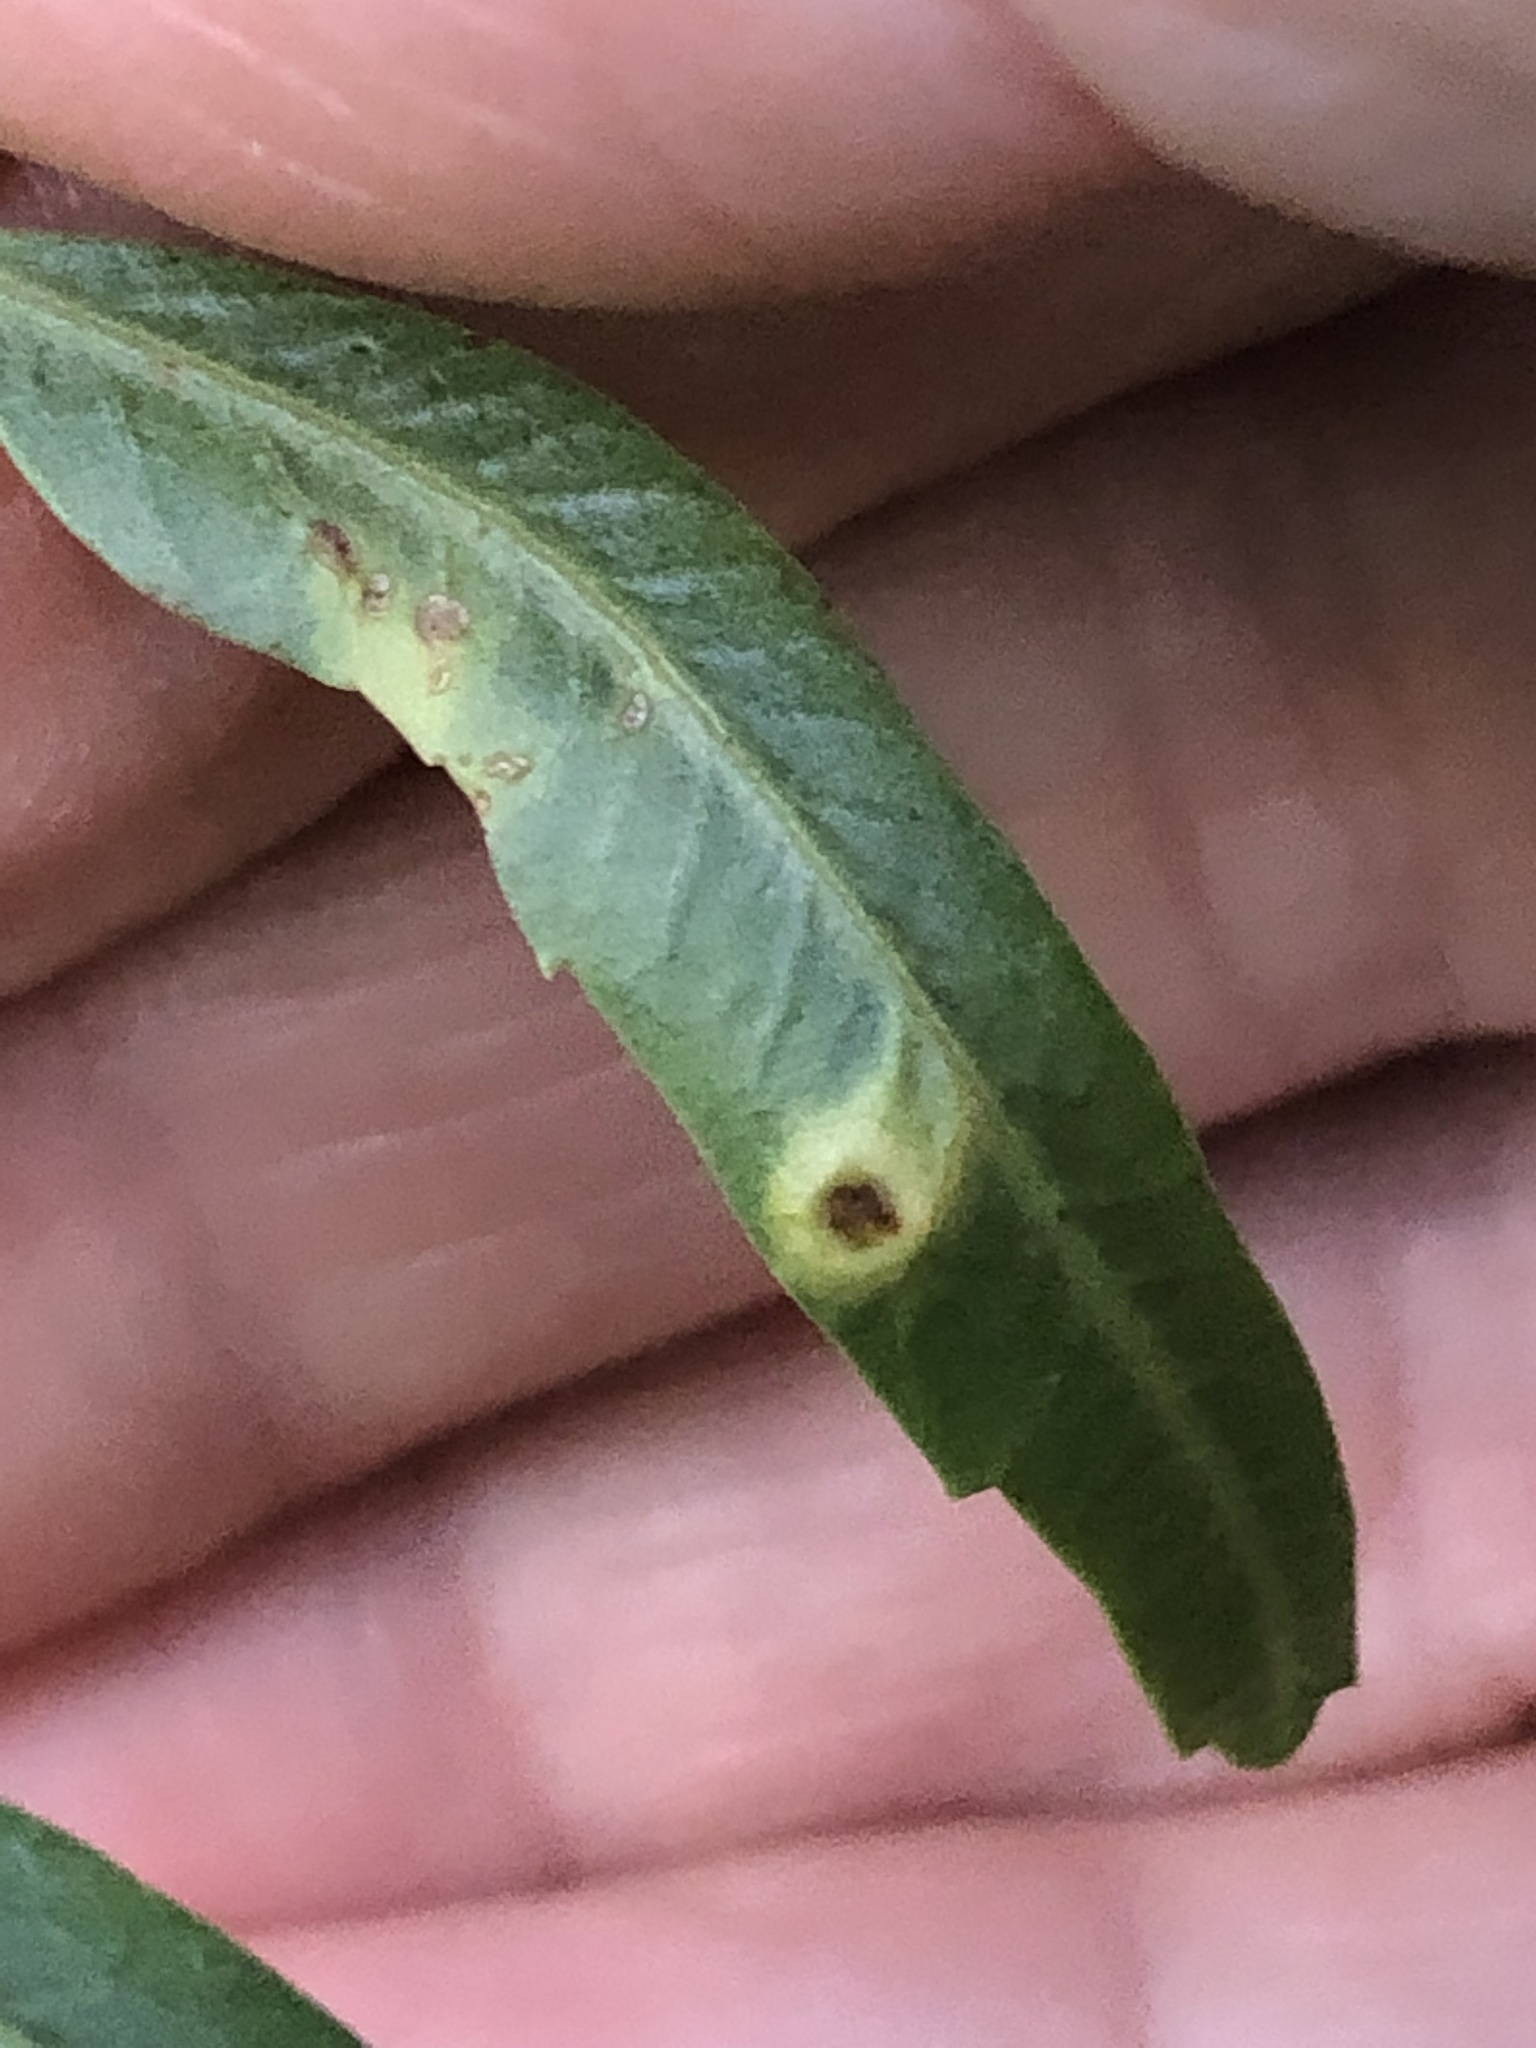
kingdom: Animalia
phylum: Arthropoda
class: Insecta
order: Hemiptera
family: Calophyidae
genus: Calophya
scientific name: Calophya schini
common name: Pepper tree psyllid
